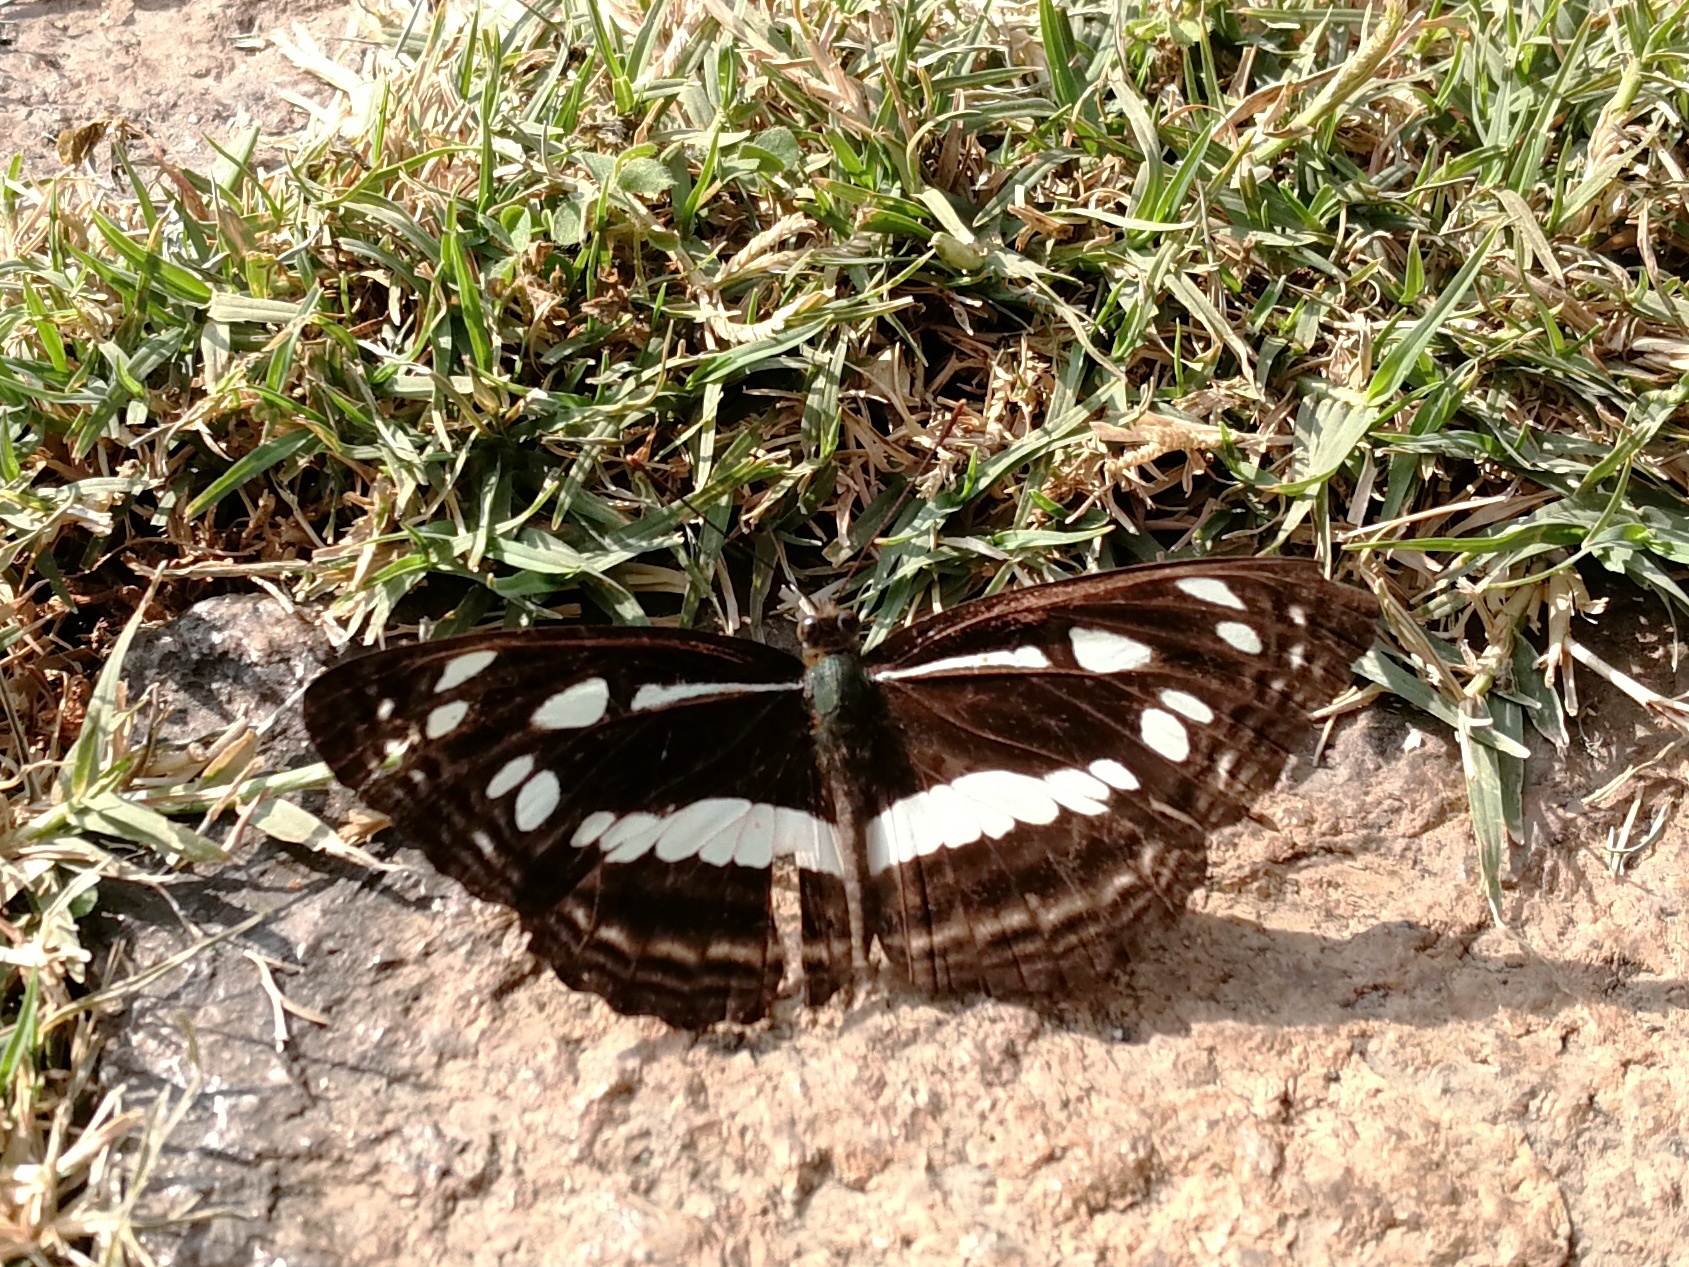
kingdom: Animalia
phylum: Arthropoda
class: Insecta
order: Lepidoptera
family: Nymphalidae
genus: Neptis
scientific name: Neptis jumbah
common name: Chestnut-streaked sailer
